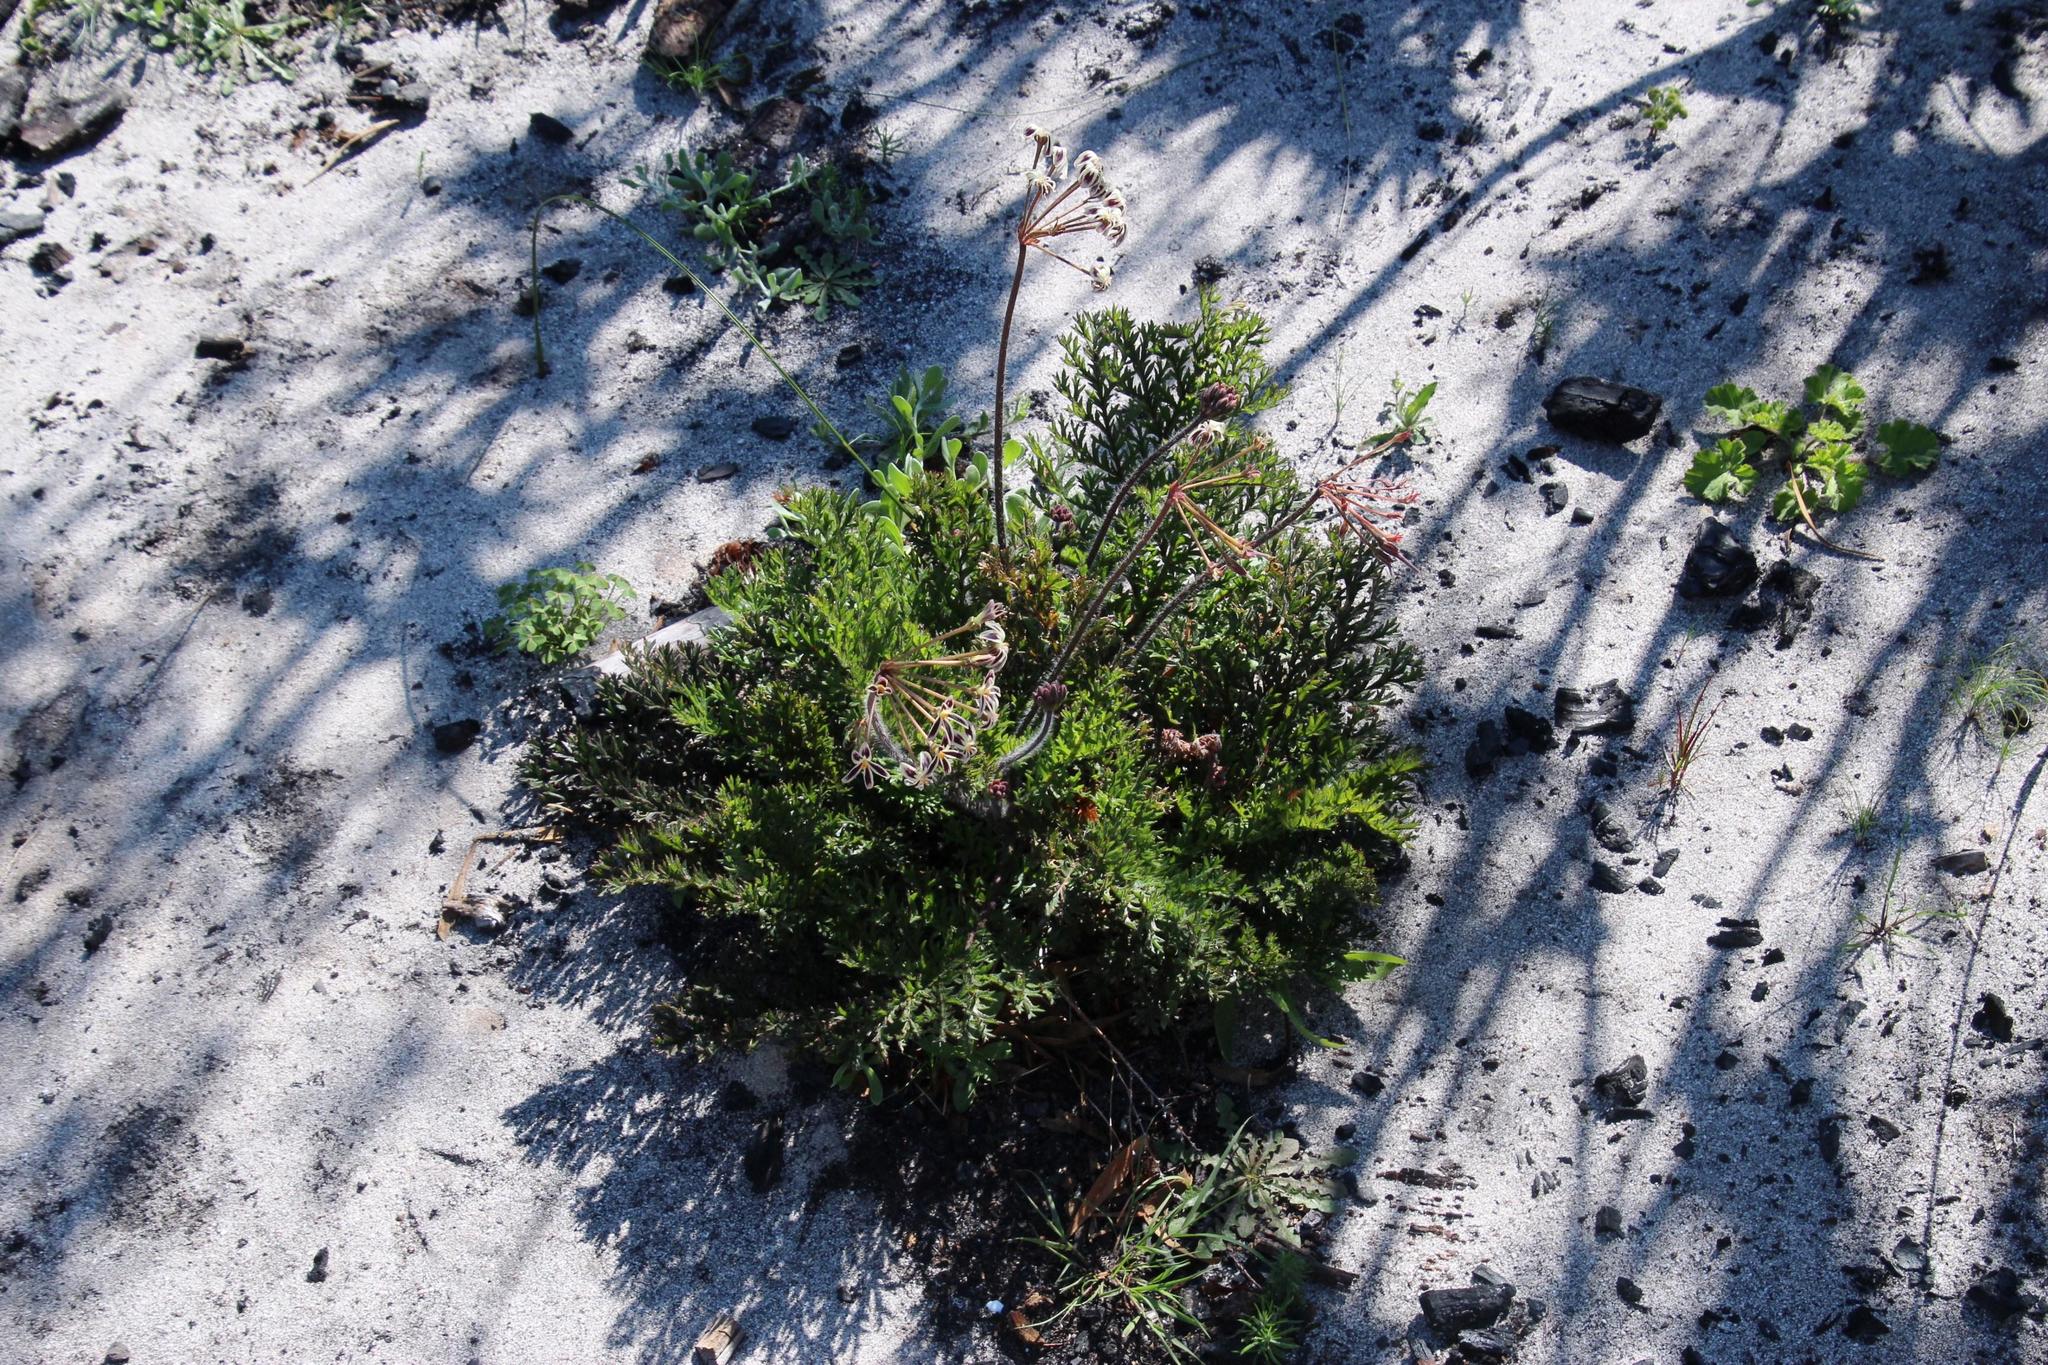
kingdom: Plantae
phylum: Tracheophyta
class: Magnoliopsida
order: Geraniales
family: Geraniaceae
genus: Pelargonium
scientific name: Pelargonium triste
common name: Night-scent pelargonium
